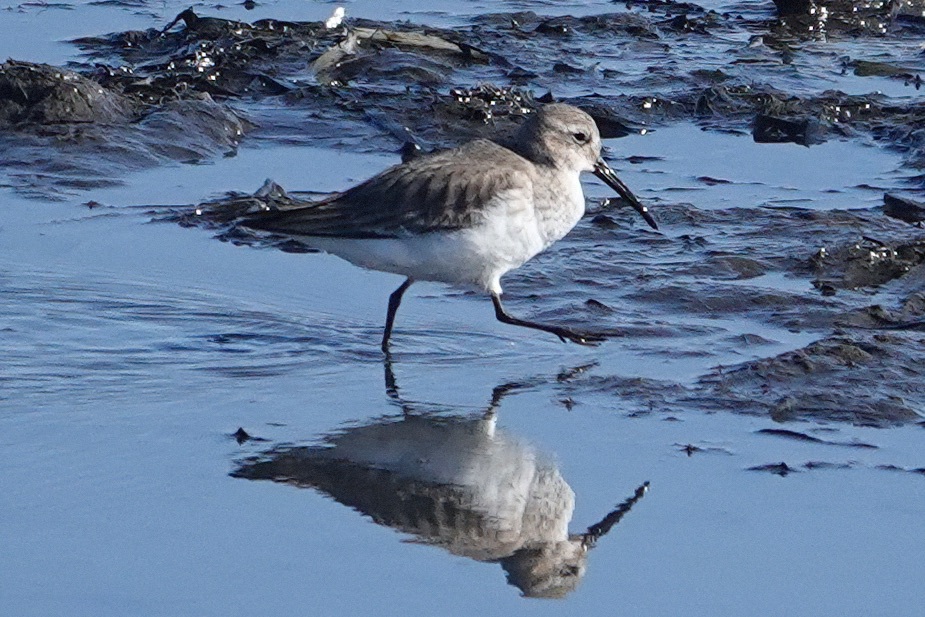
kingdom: Animalia
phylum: Chordata
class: Aves
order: Charadriiformes
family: Scolopacidae
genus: Calidris
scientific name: Calidris alpina
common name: Dunlin
